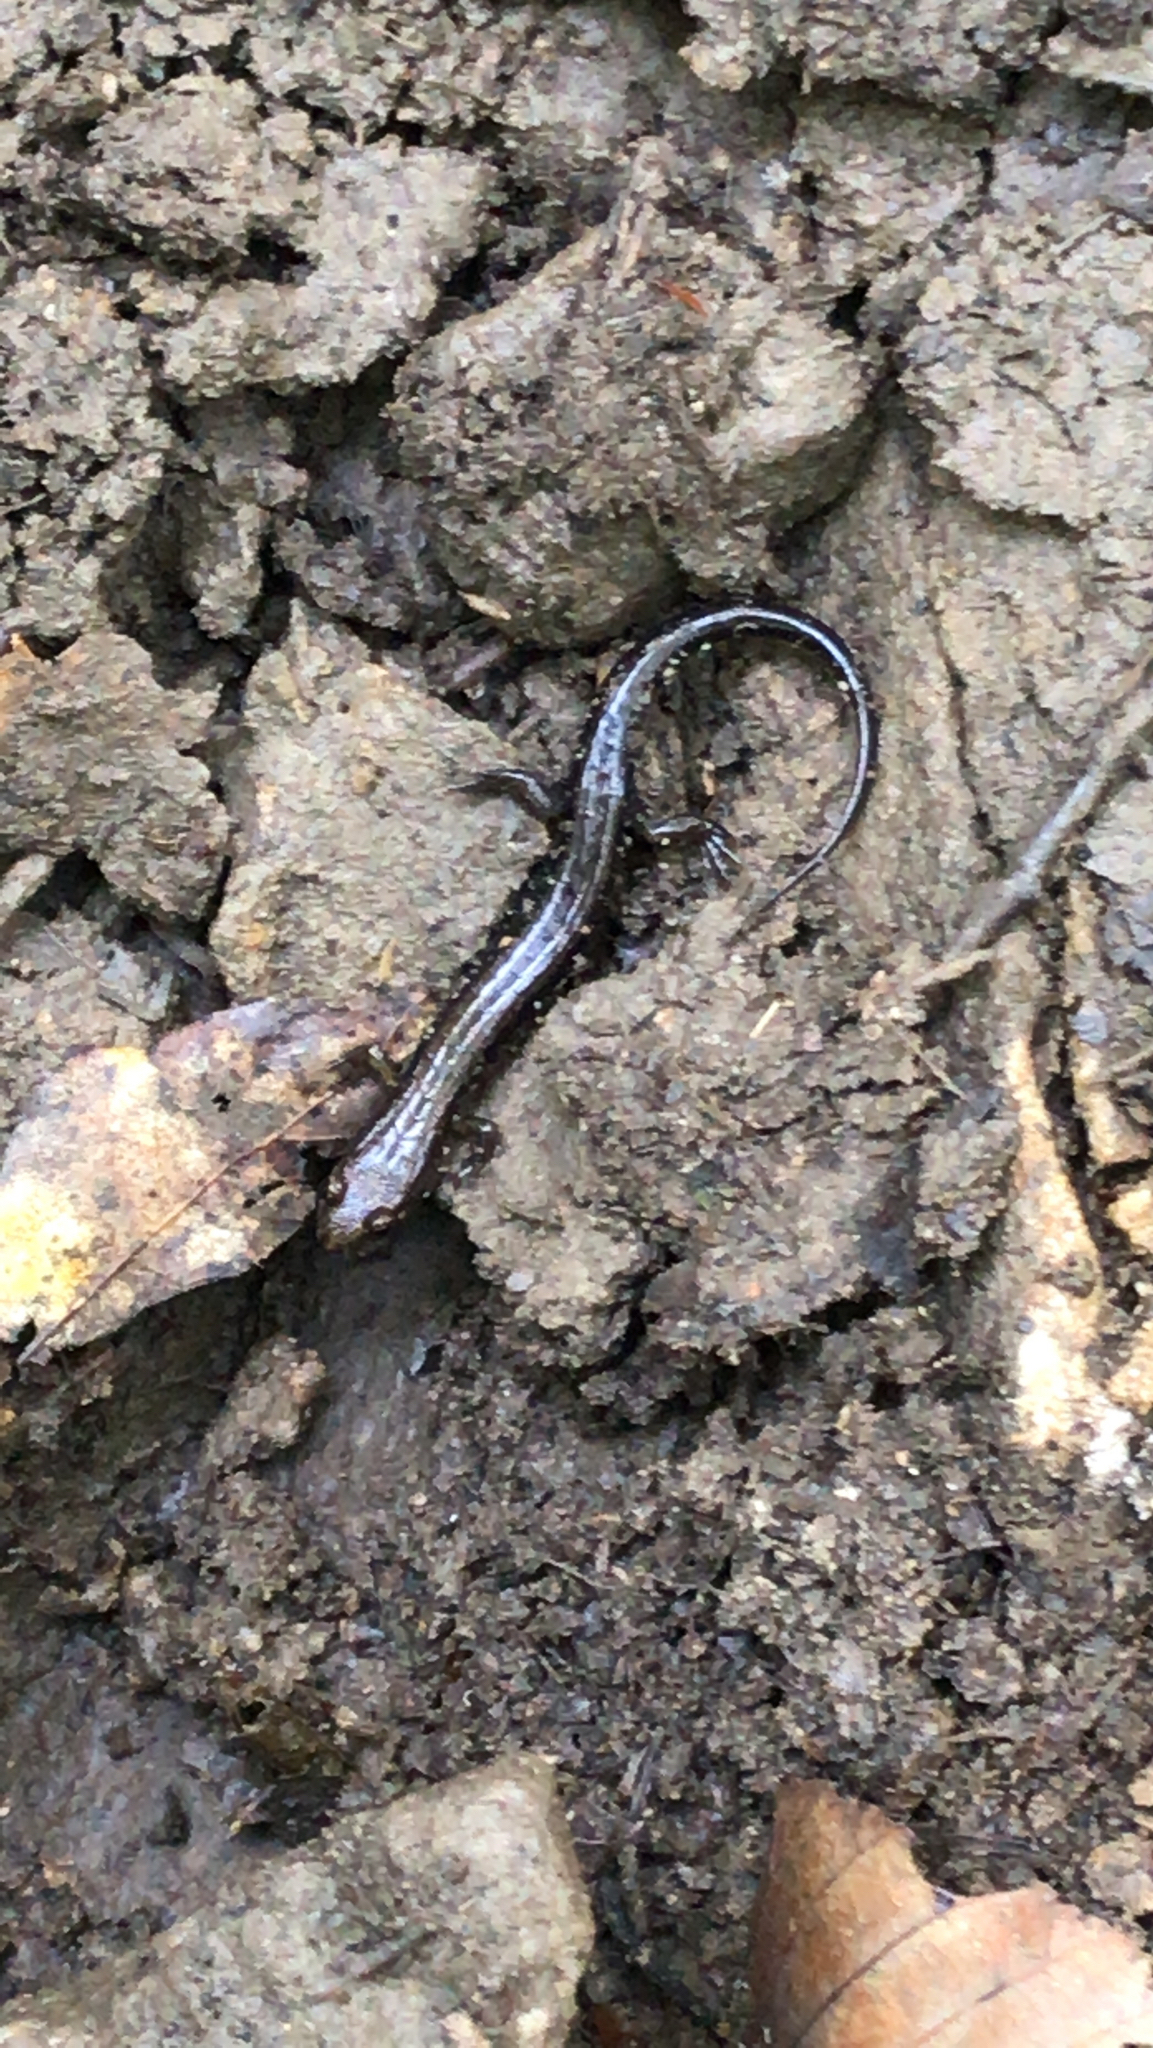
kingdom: Animalia
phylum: Chordata
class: Amphibia
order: Caudata
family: Plethodontidae
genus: Desmognathus
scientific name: Desmognathus ochrophaeus
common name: Allegheny mountain dusky salamander
